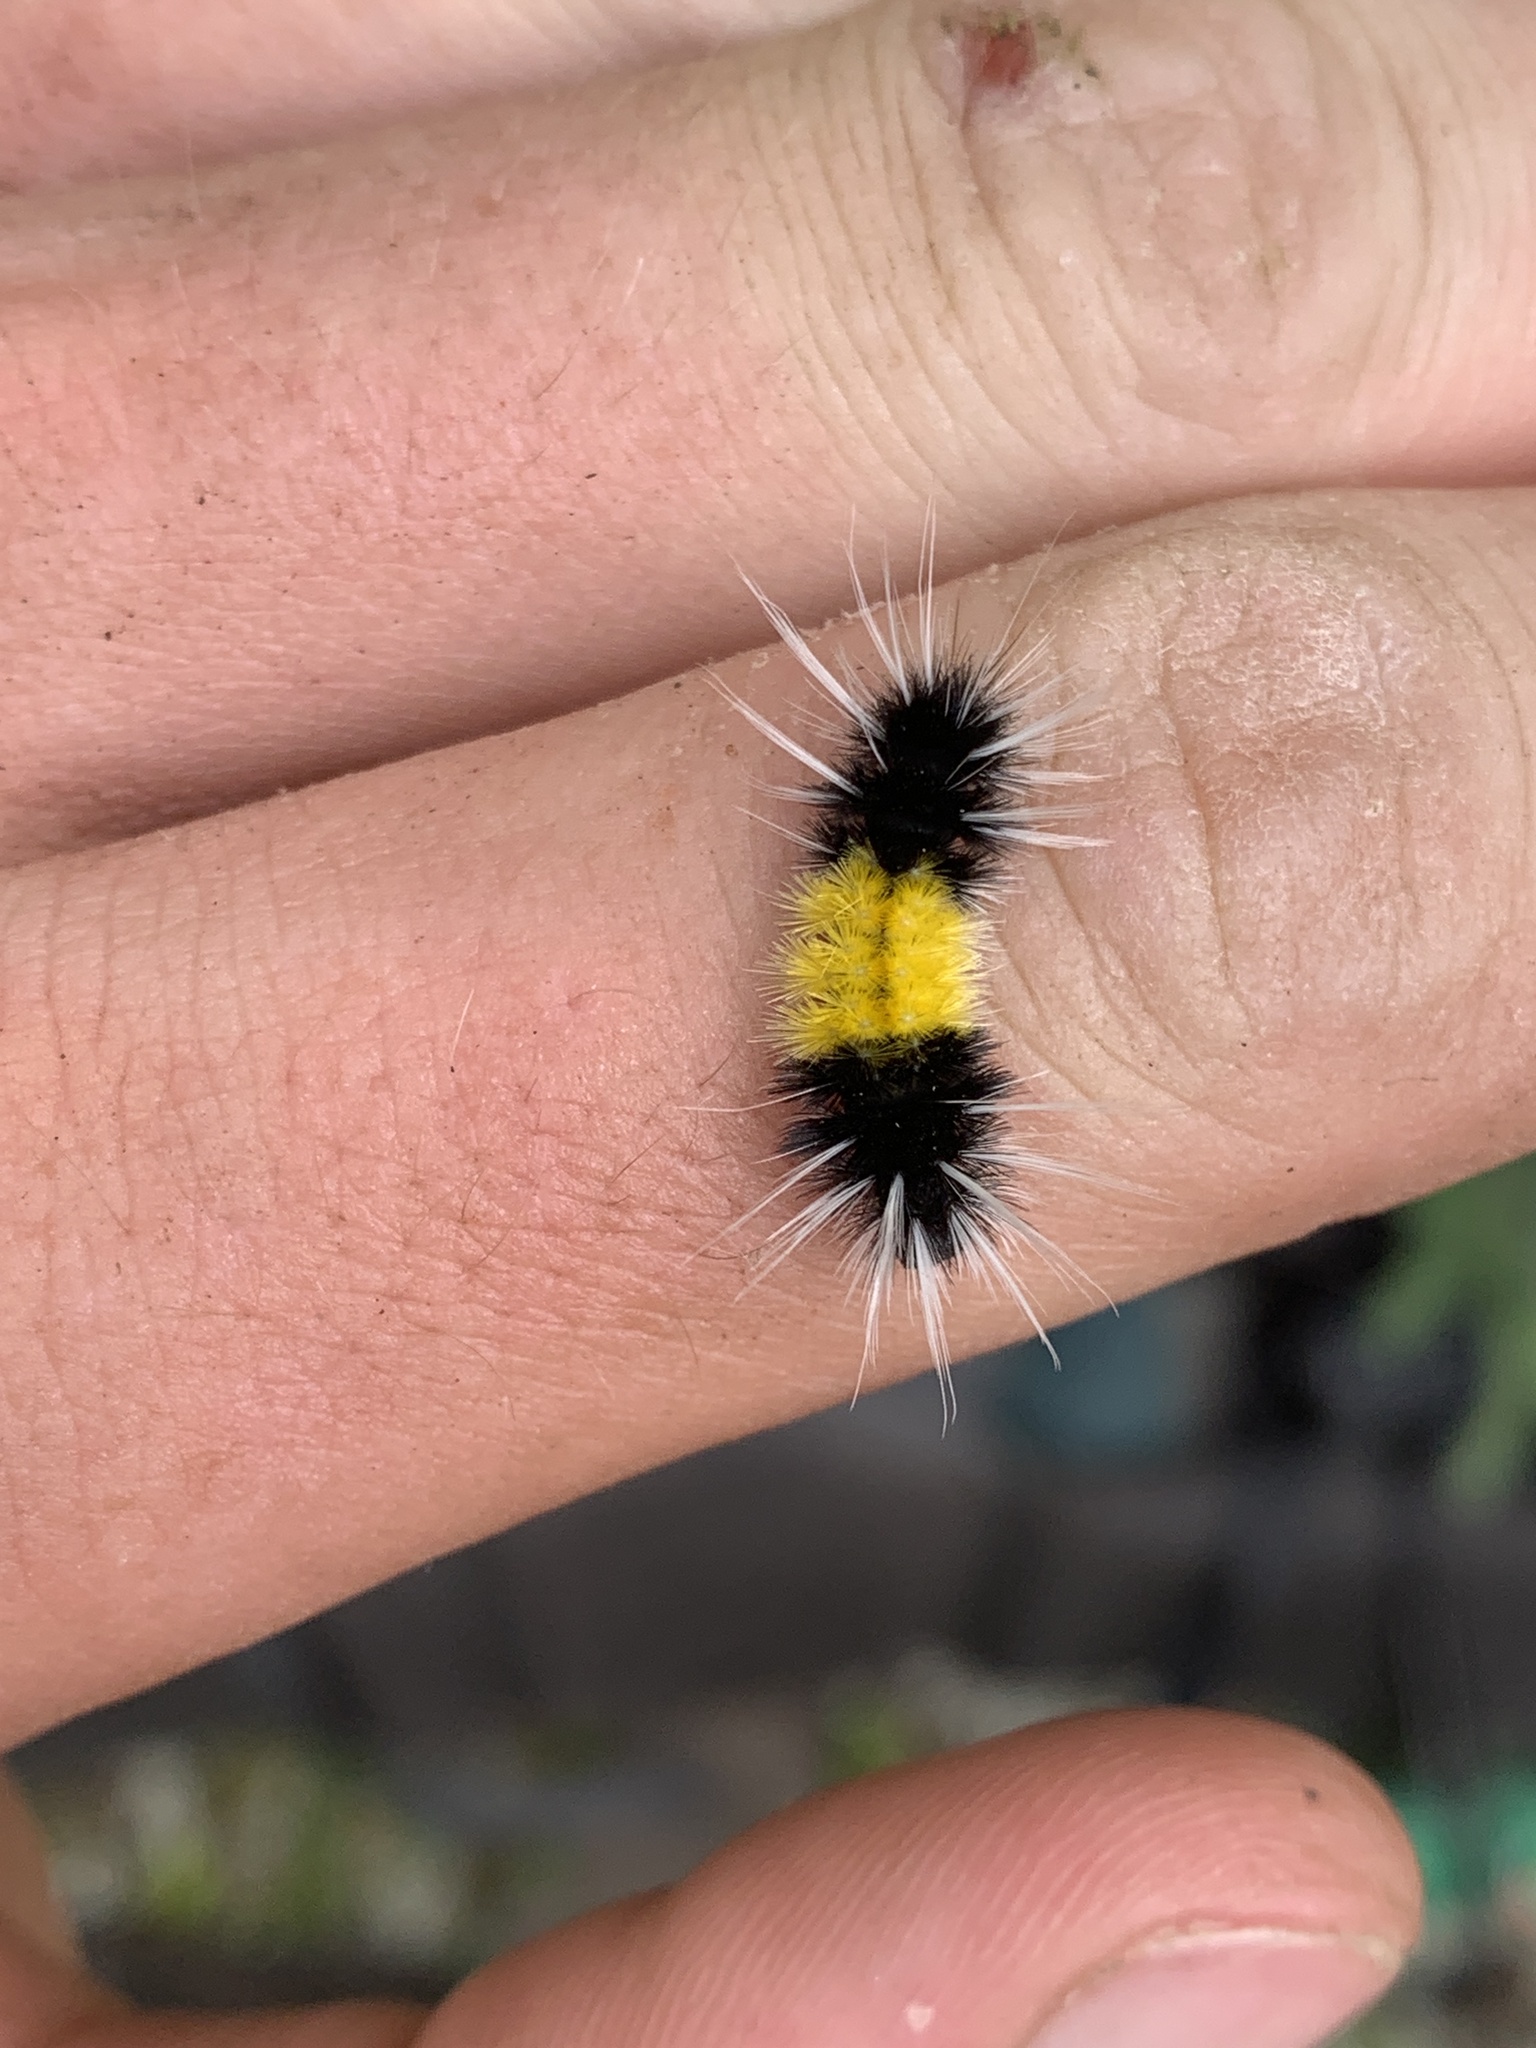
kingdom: Animalia
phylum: Arthropoda
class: Insecta
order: Lepidoptera
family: Erebidae
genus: Lophocampa
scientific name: Lophocampa maculata
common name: Spotted tussock moth
